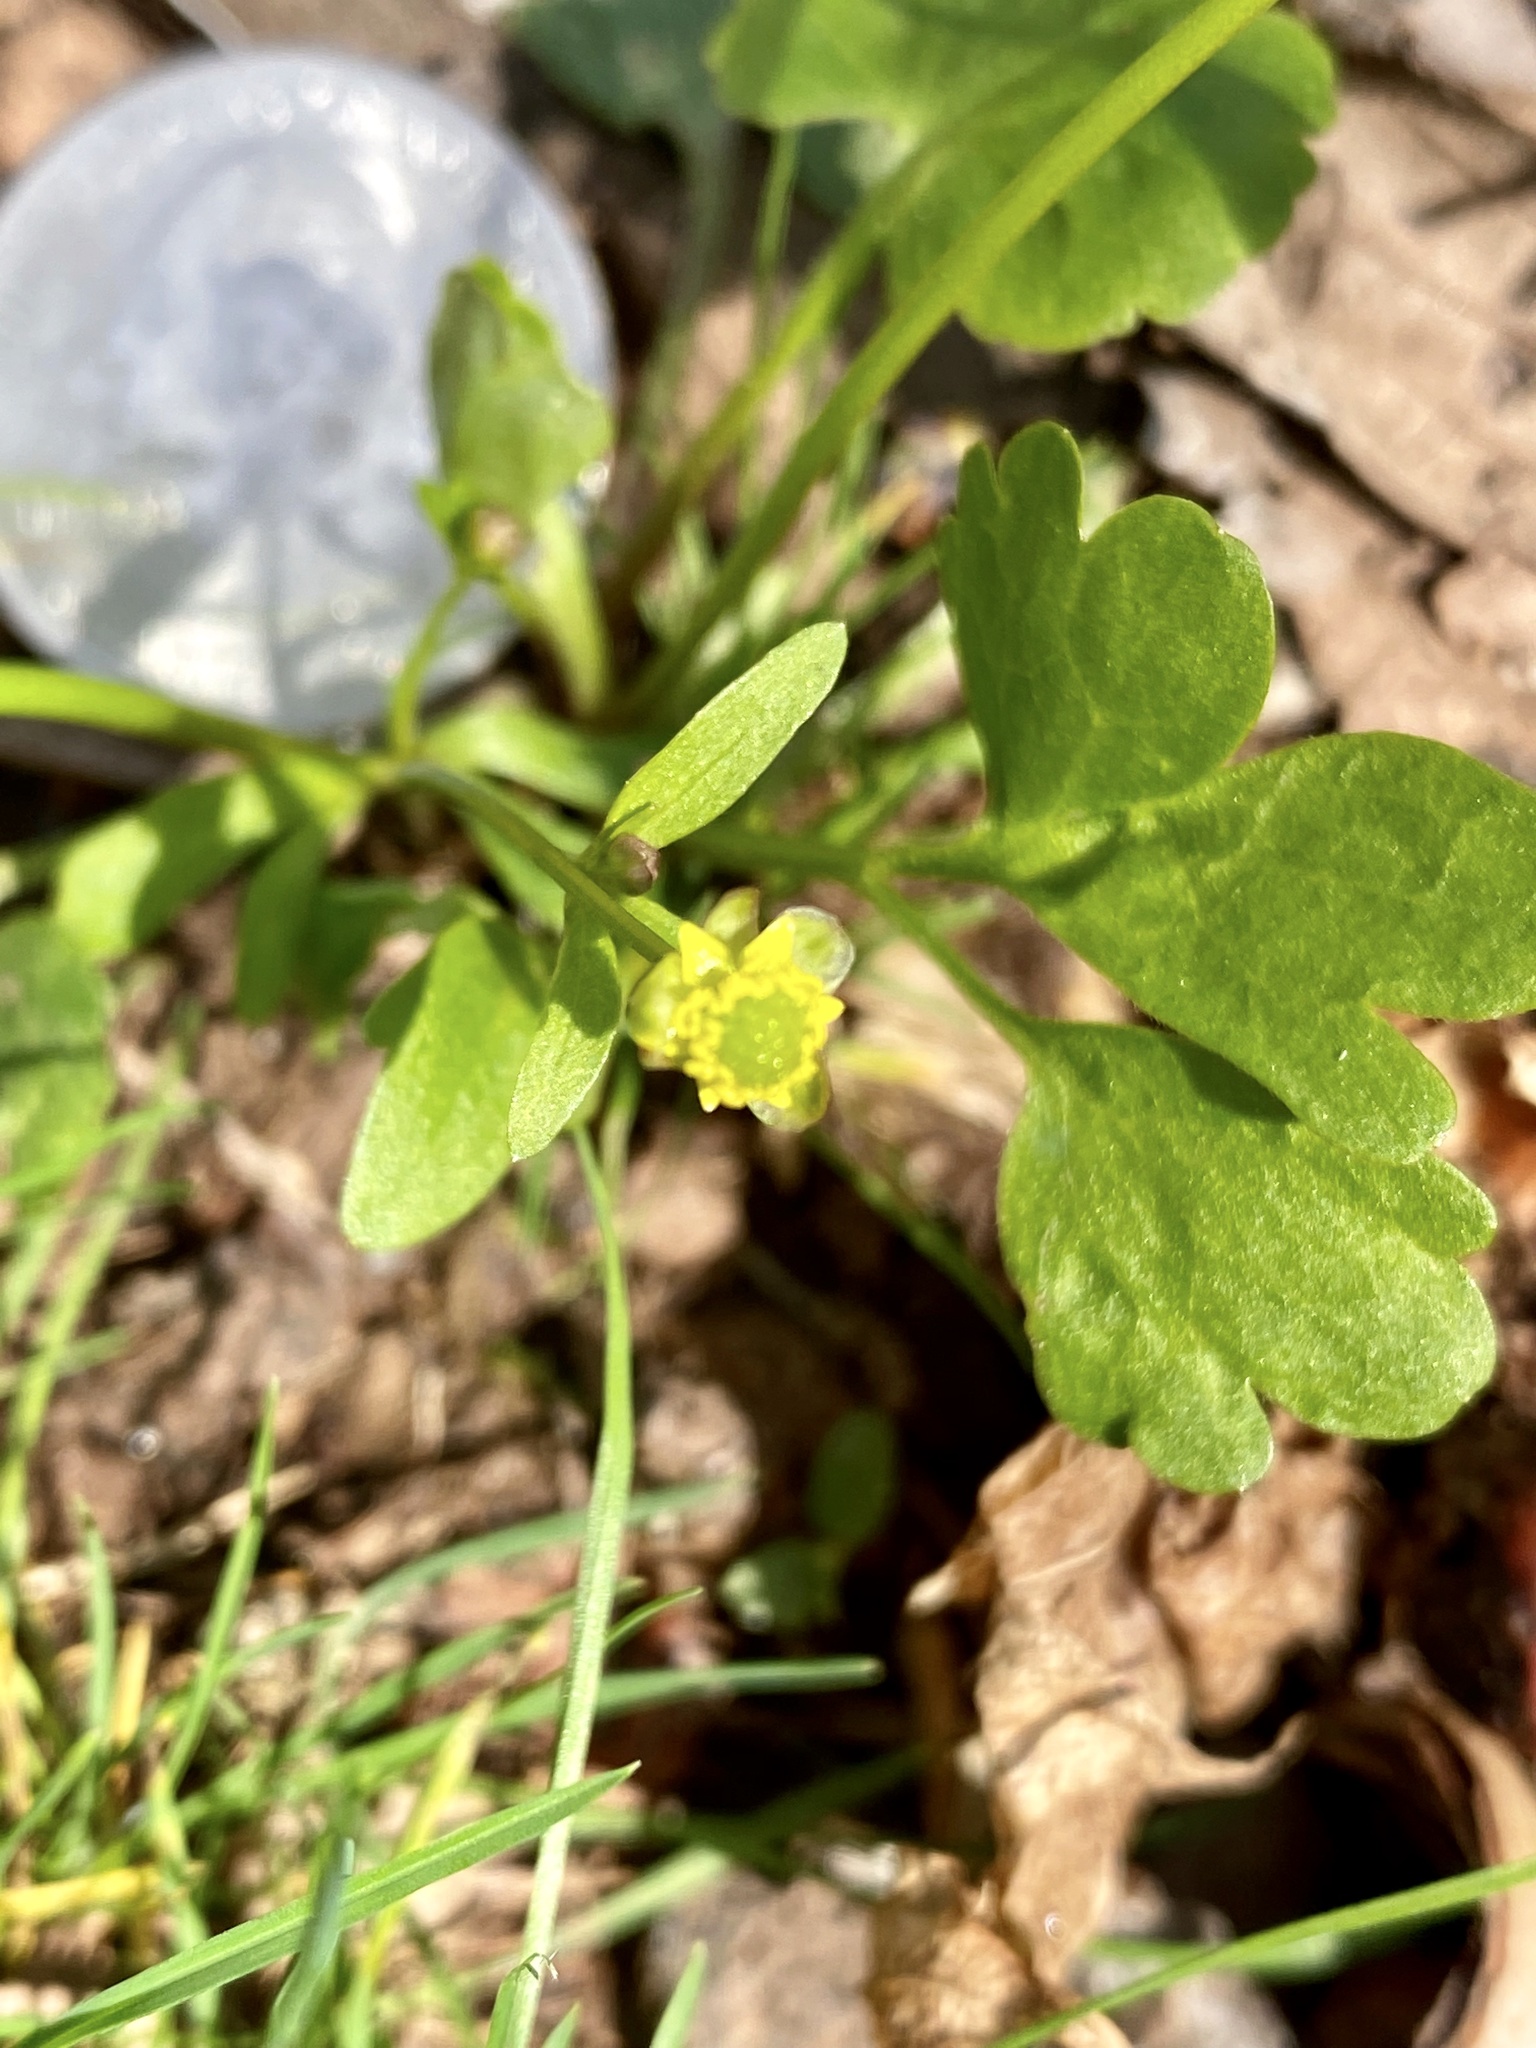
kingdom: Plantae
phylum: Tracheophyta
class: Magnoliopsida
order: Ranunculales
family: Ranunculaceae
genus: Ranunculus
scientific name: Ranunculus abortivus
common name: Early wood buttercup
